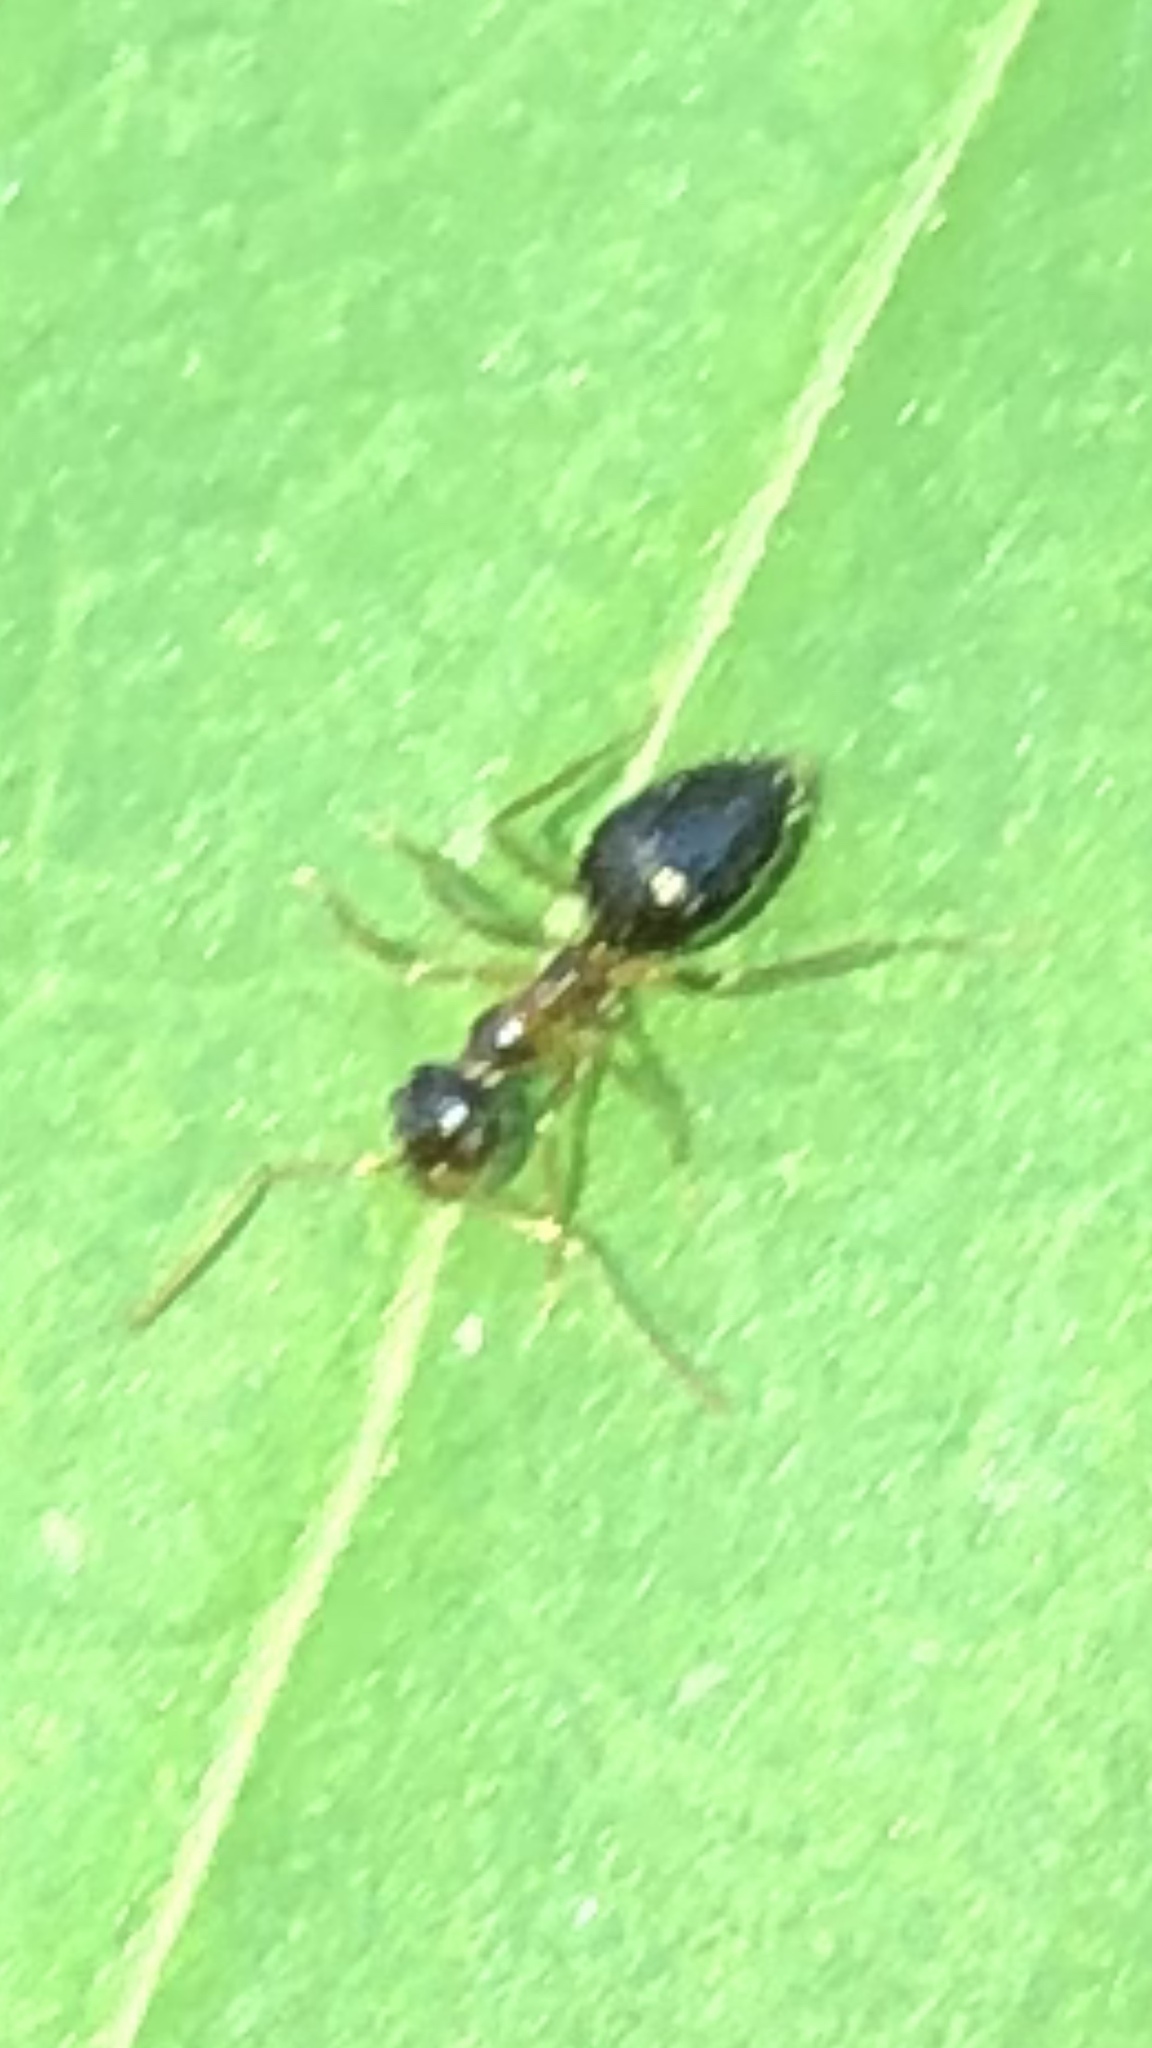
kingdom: Animalia
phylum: Arthropoda
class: Insecta
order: Hymenoptera
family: Formicidae
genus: Prenolepis
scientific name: Prenolepis imparis
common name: Small honey ant
